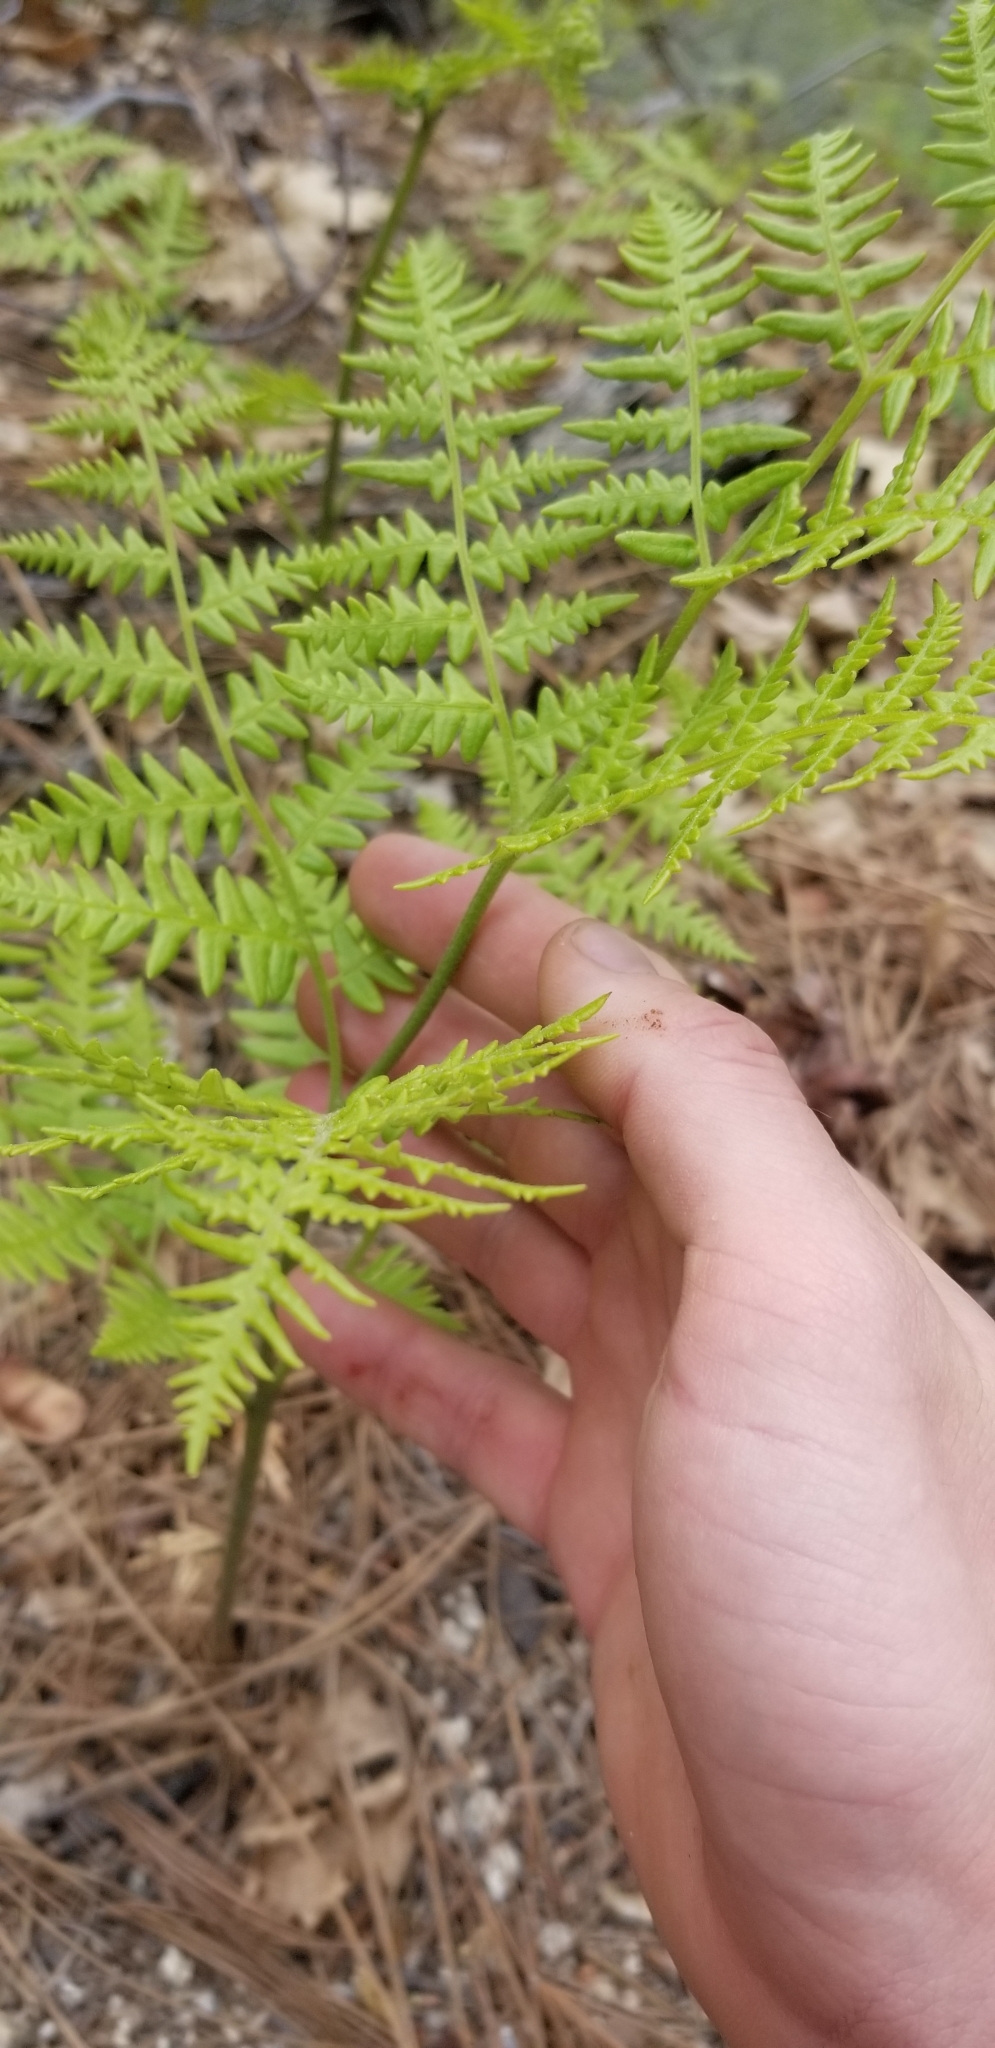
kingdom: Plantae
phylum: Tracheophyta
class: Polypodiopsida
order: Polypodiales
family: Dennstaedtiaceae
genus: Pteridium
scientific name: Pteridium aquilinum
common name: Bracken
